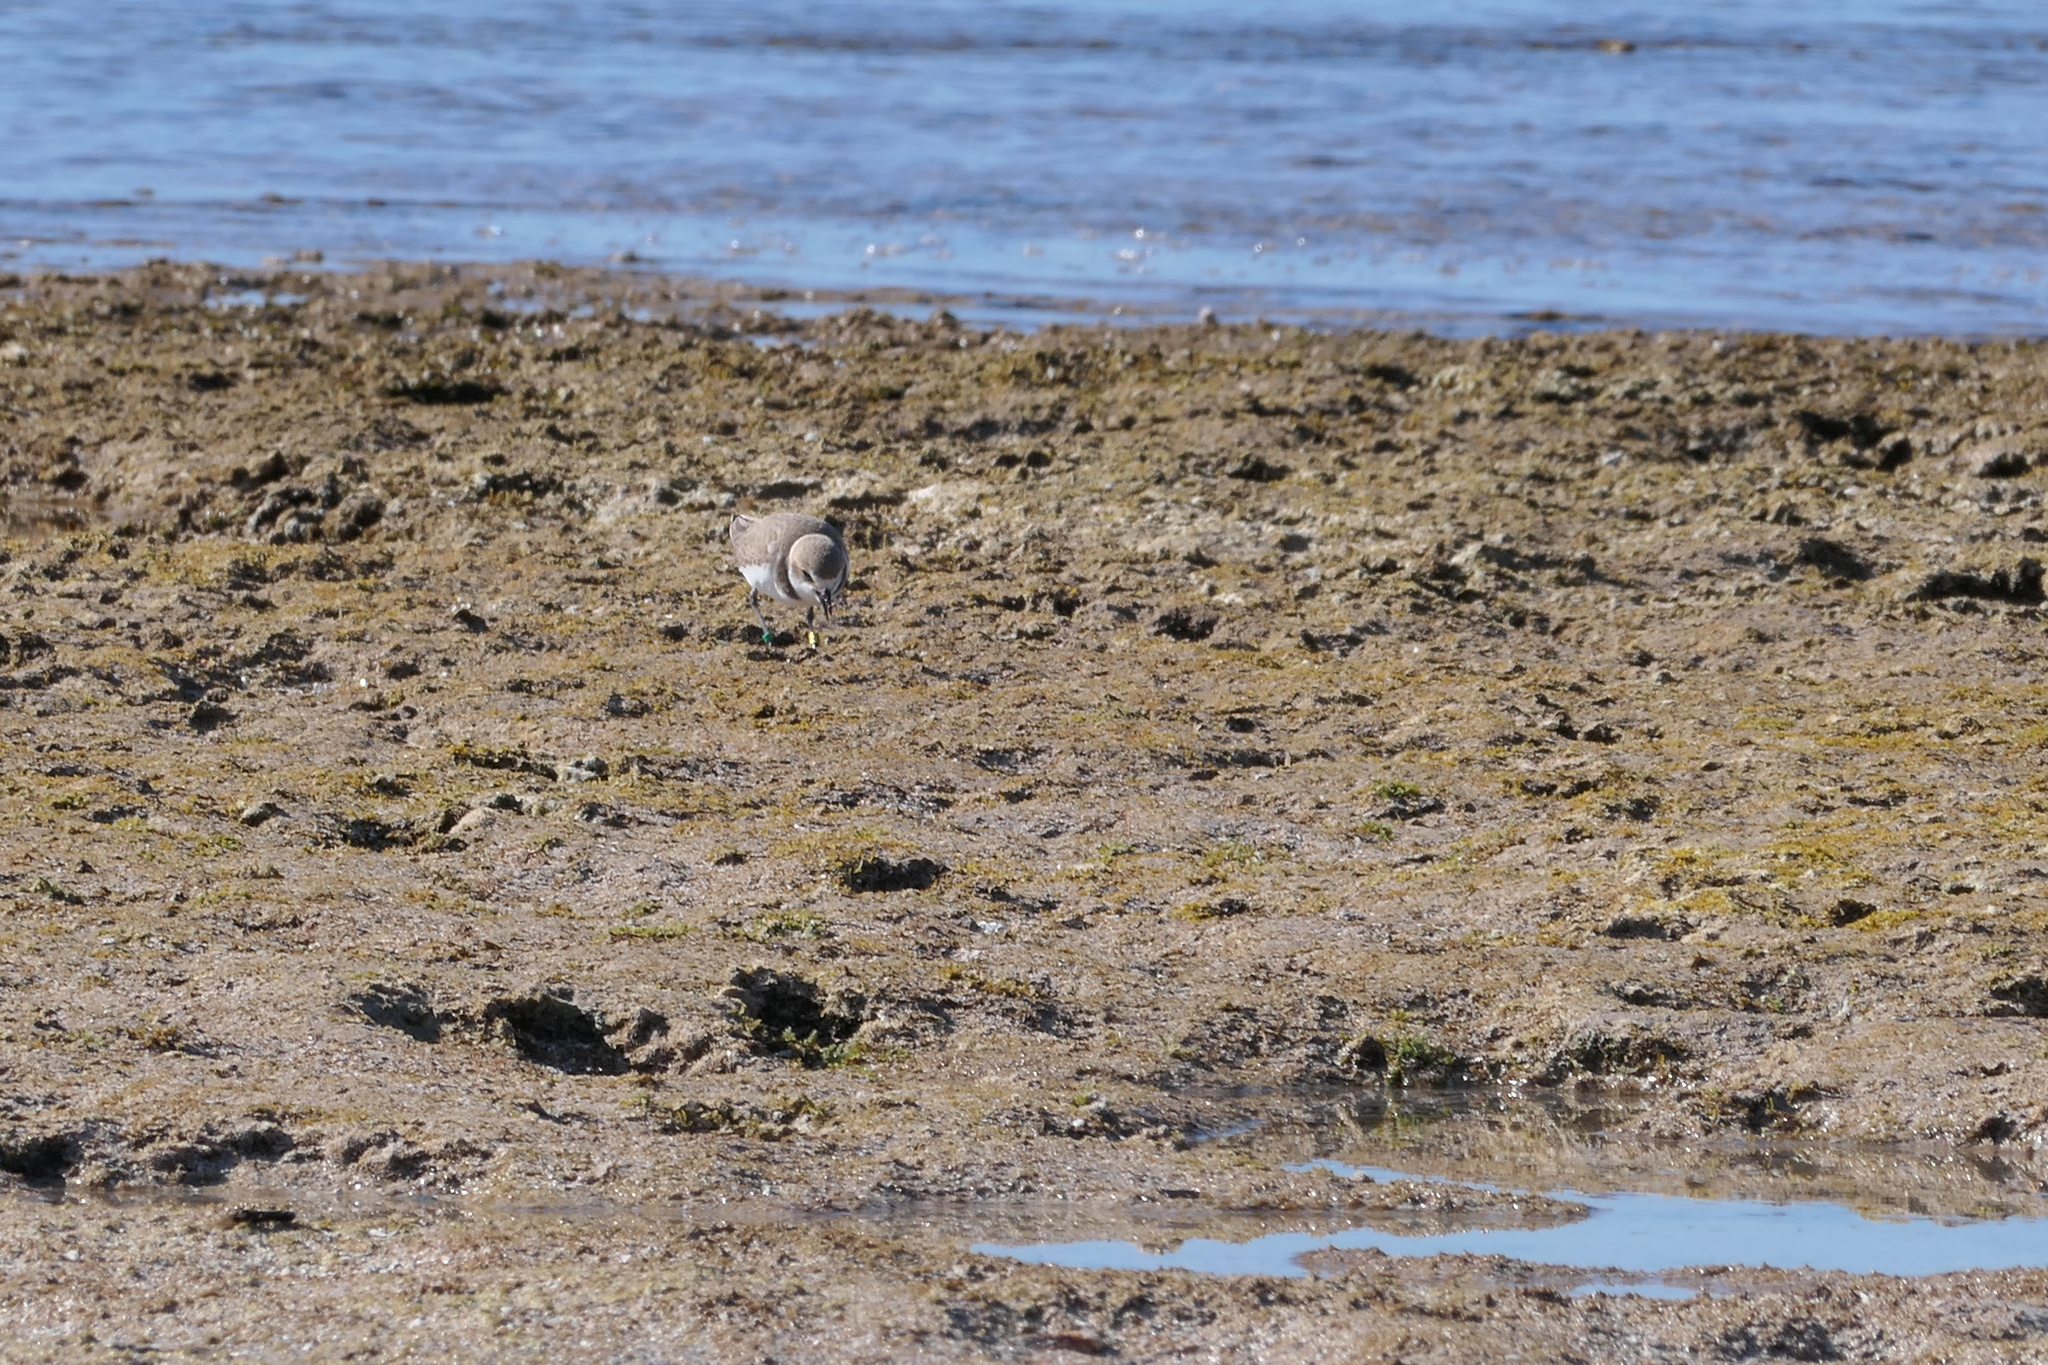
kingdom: Animalia
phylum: Chordata
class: Aves
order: Charadriiformes
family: Charadriidae
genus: Charadrius
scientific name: Charadrius alexandrinus
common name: Kentish plover
